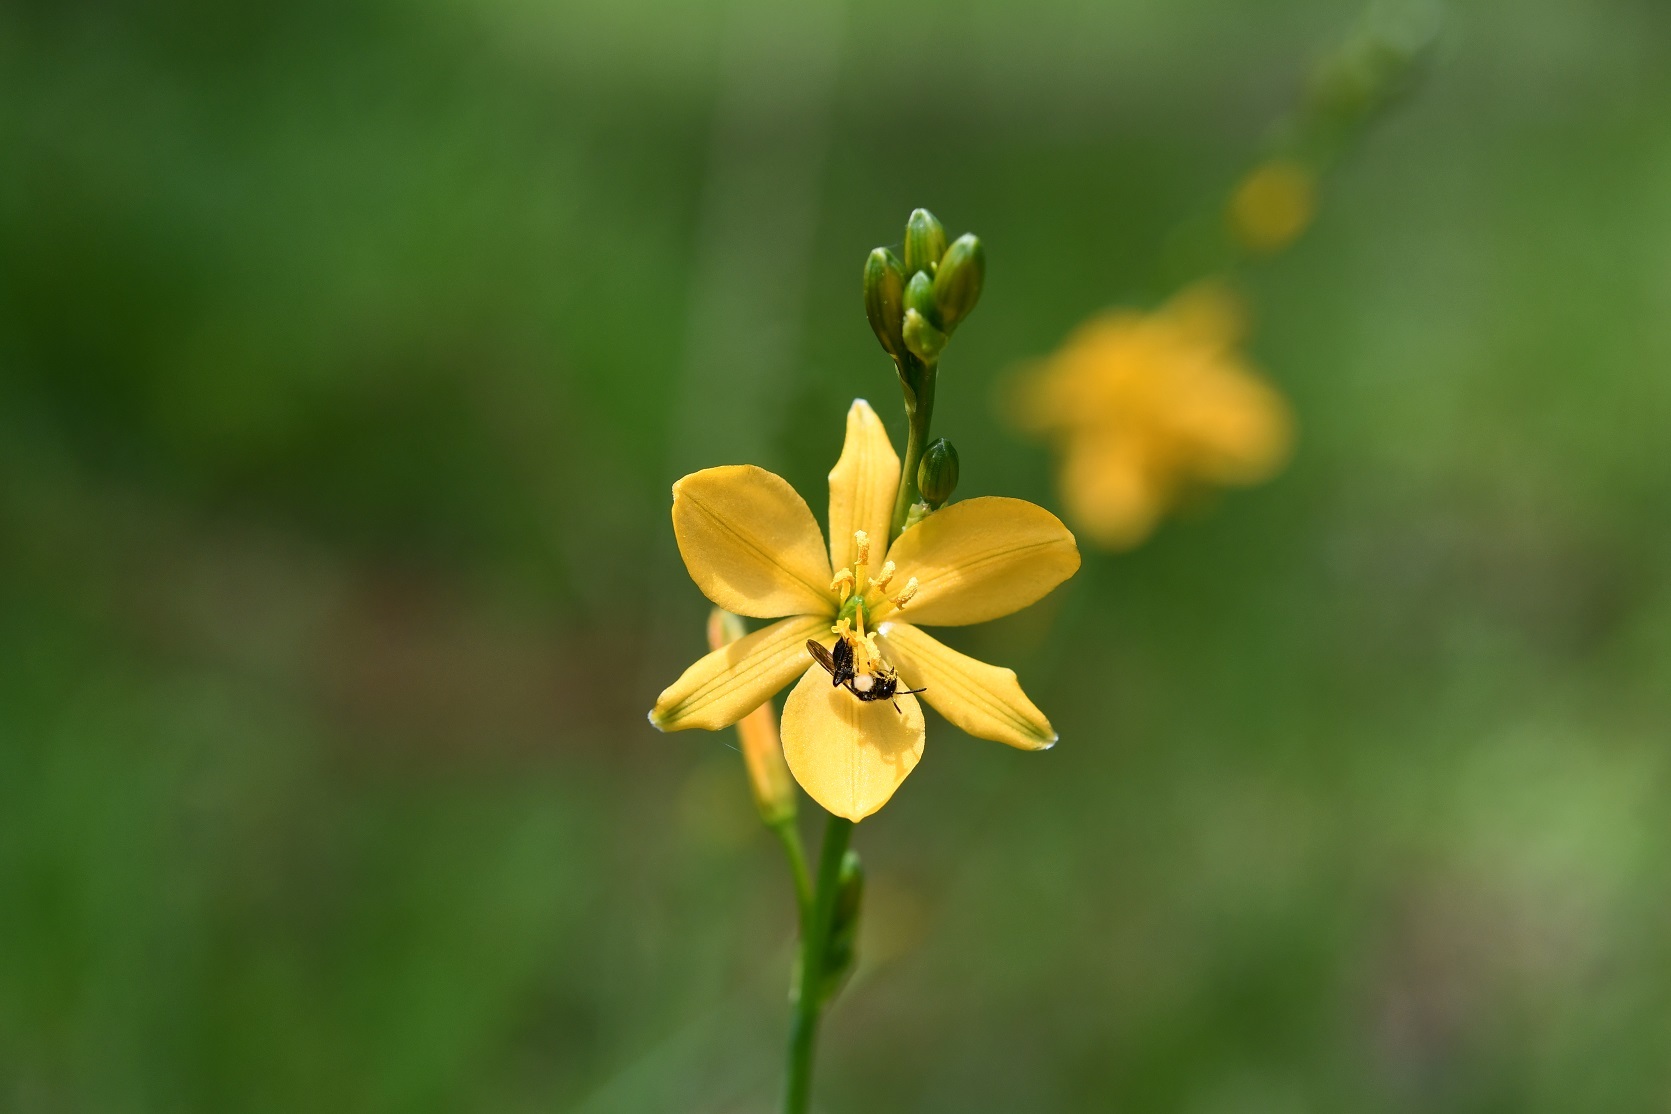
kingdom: Plantae
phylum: Tracheophyta
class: Liliopsida
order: Asparagales
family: Asparagaceae
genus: Echeandia
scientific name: Echeandia skinneri
